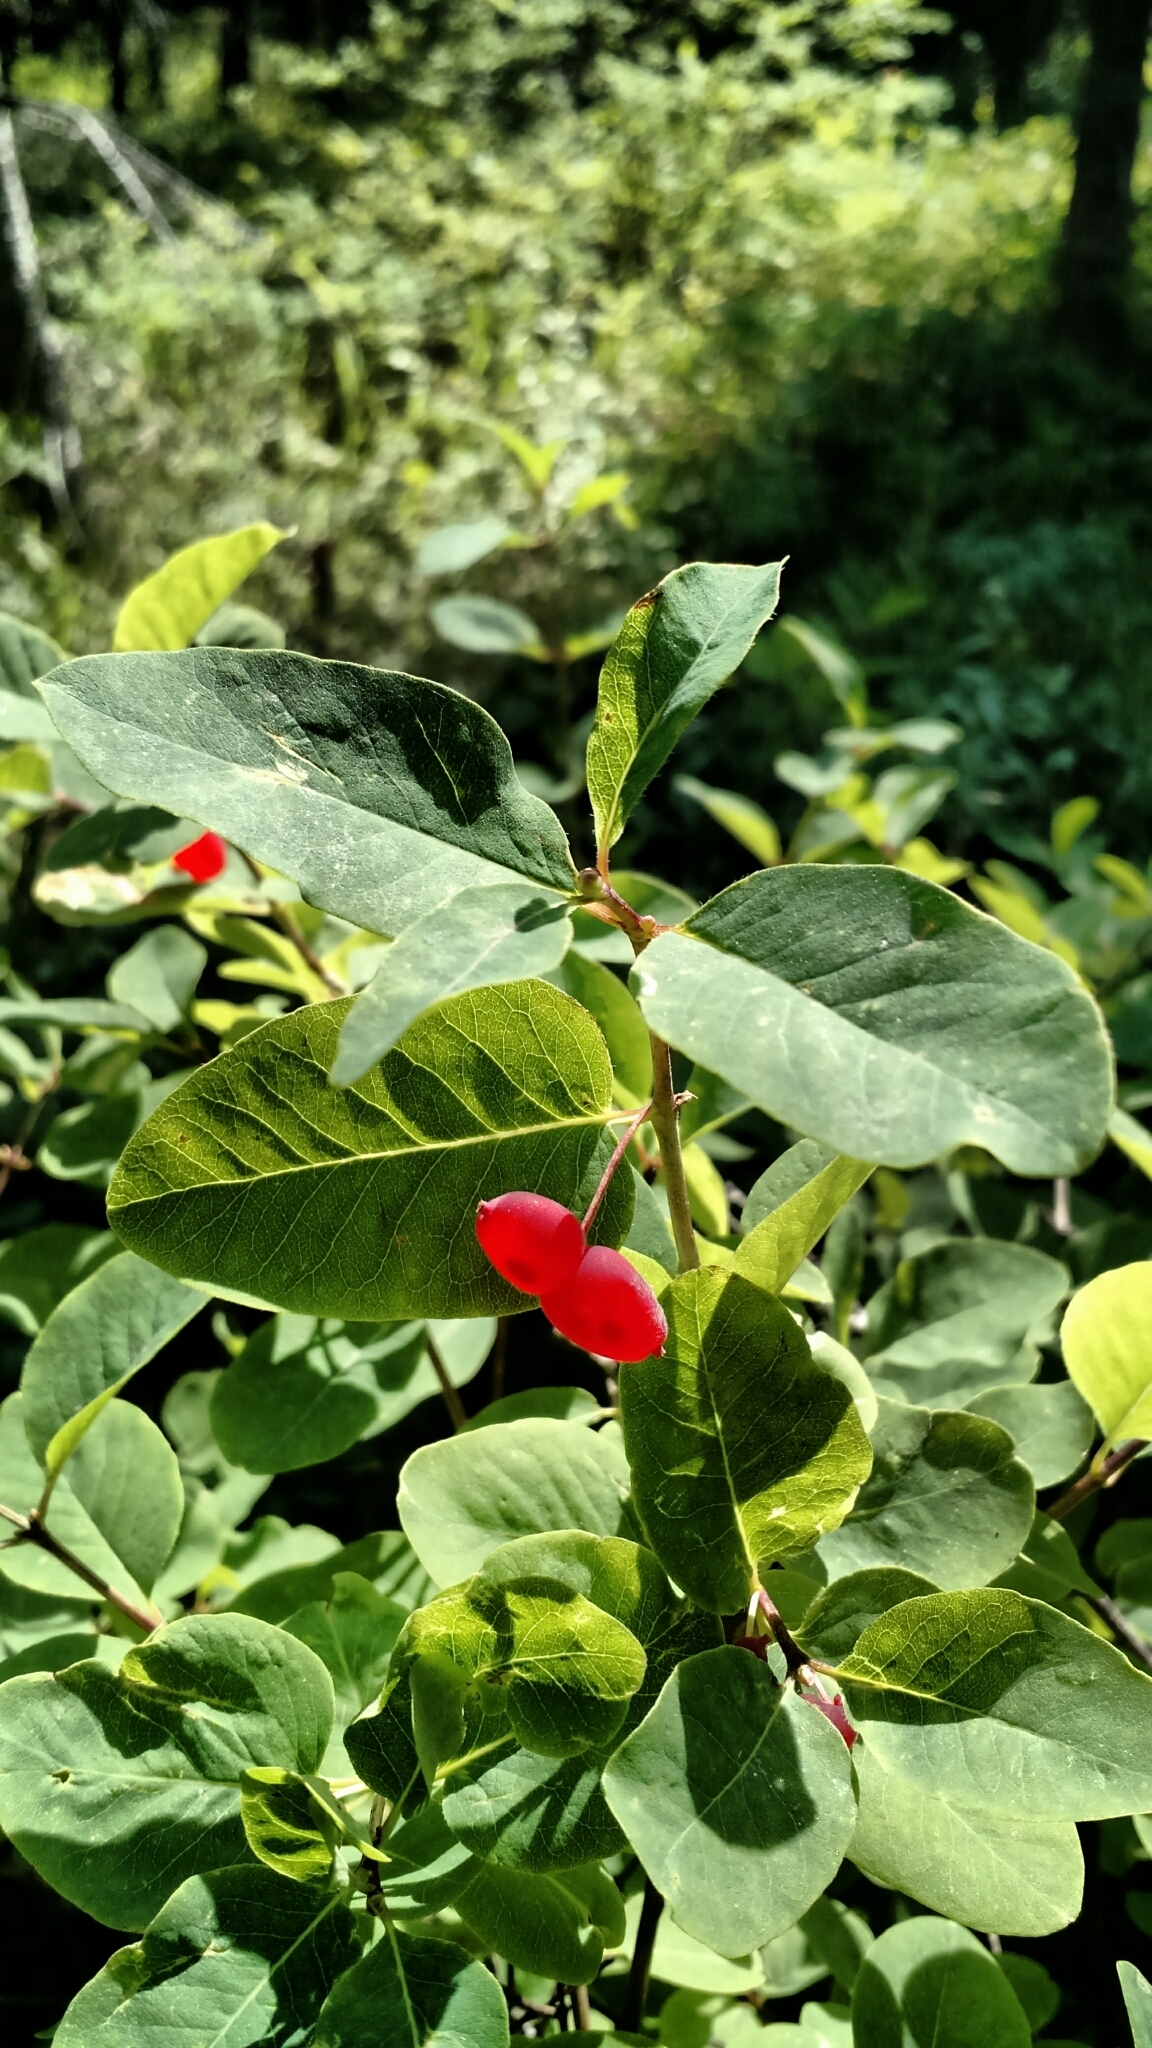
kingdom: Plantae
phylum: Tracheophyta
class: Magnoliopsida
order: Dipsacales
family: Caprifoliaceae
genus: Lonicera
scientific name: Lonicera utahensis
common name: Utah honeysuckle
